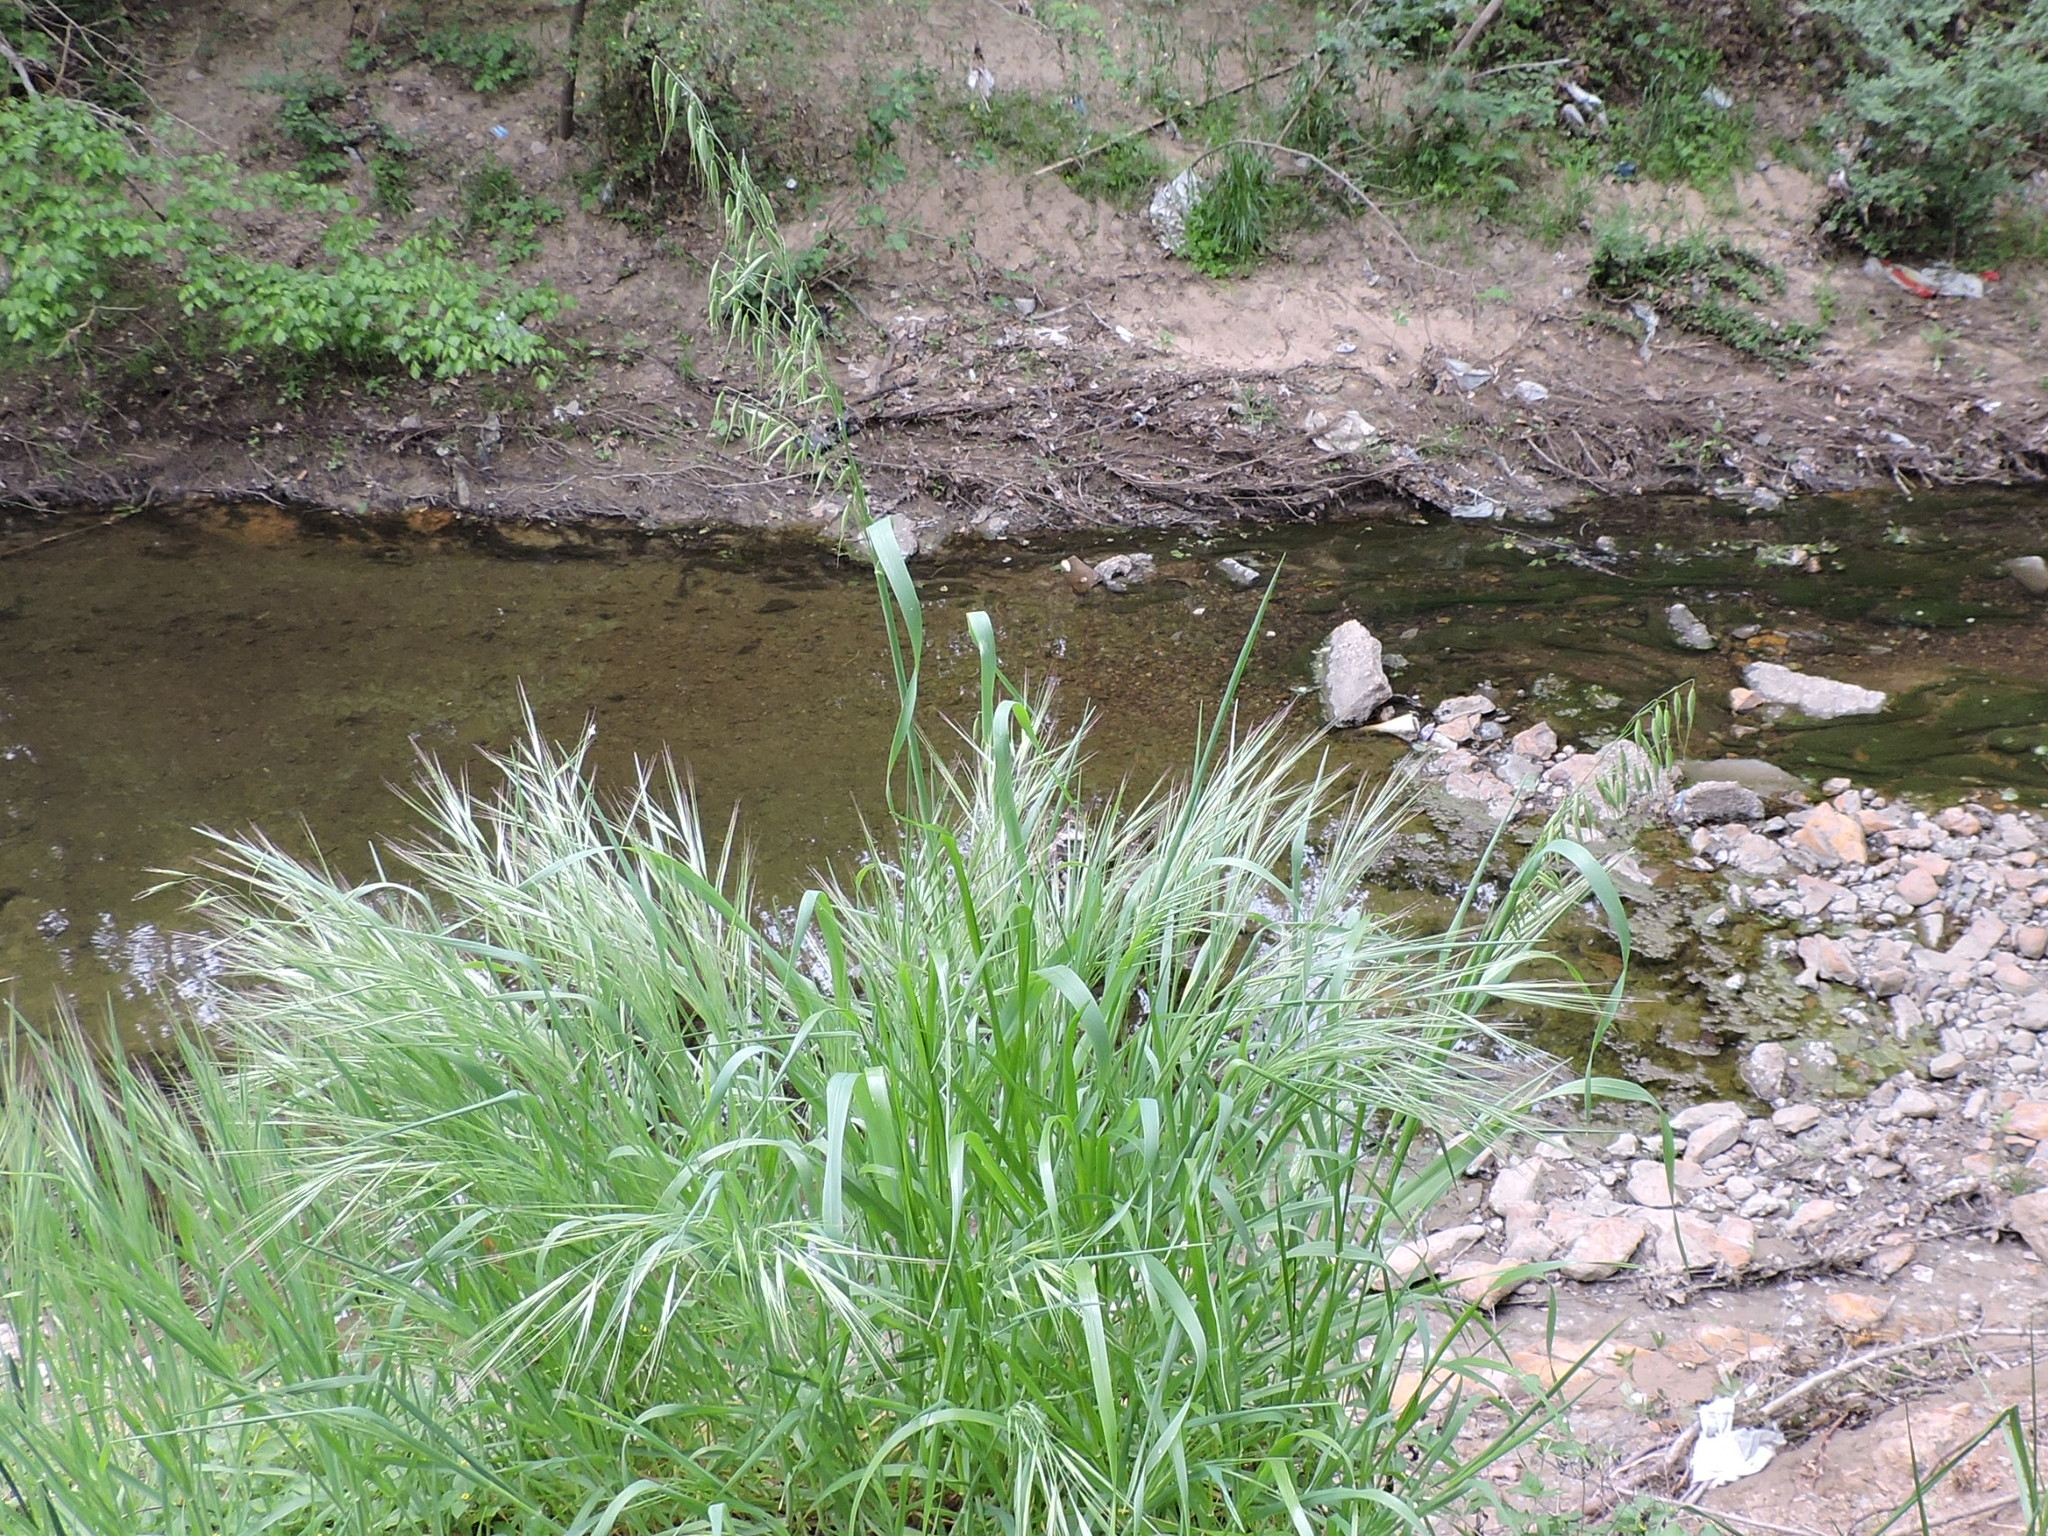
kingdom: Plantae
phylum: Tracheophyta
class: Liliopsida
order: Poales
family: Poaceae
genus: Avena
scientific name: Avena sativa
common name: Oat
